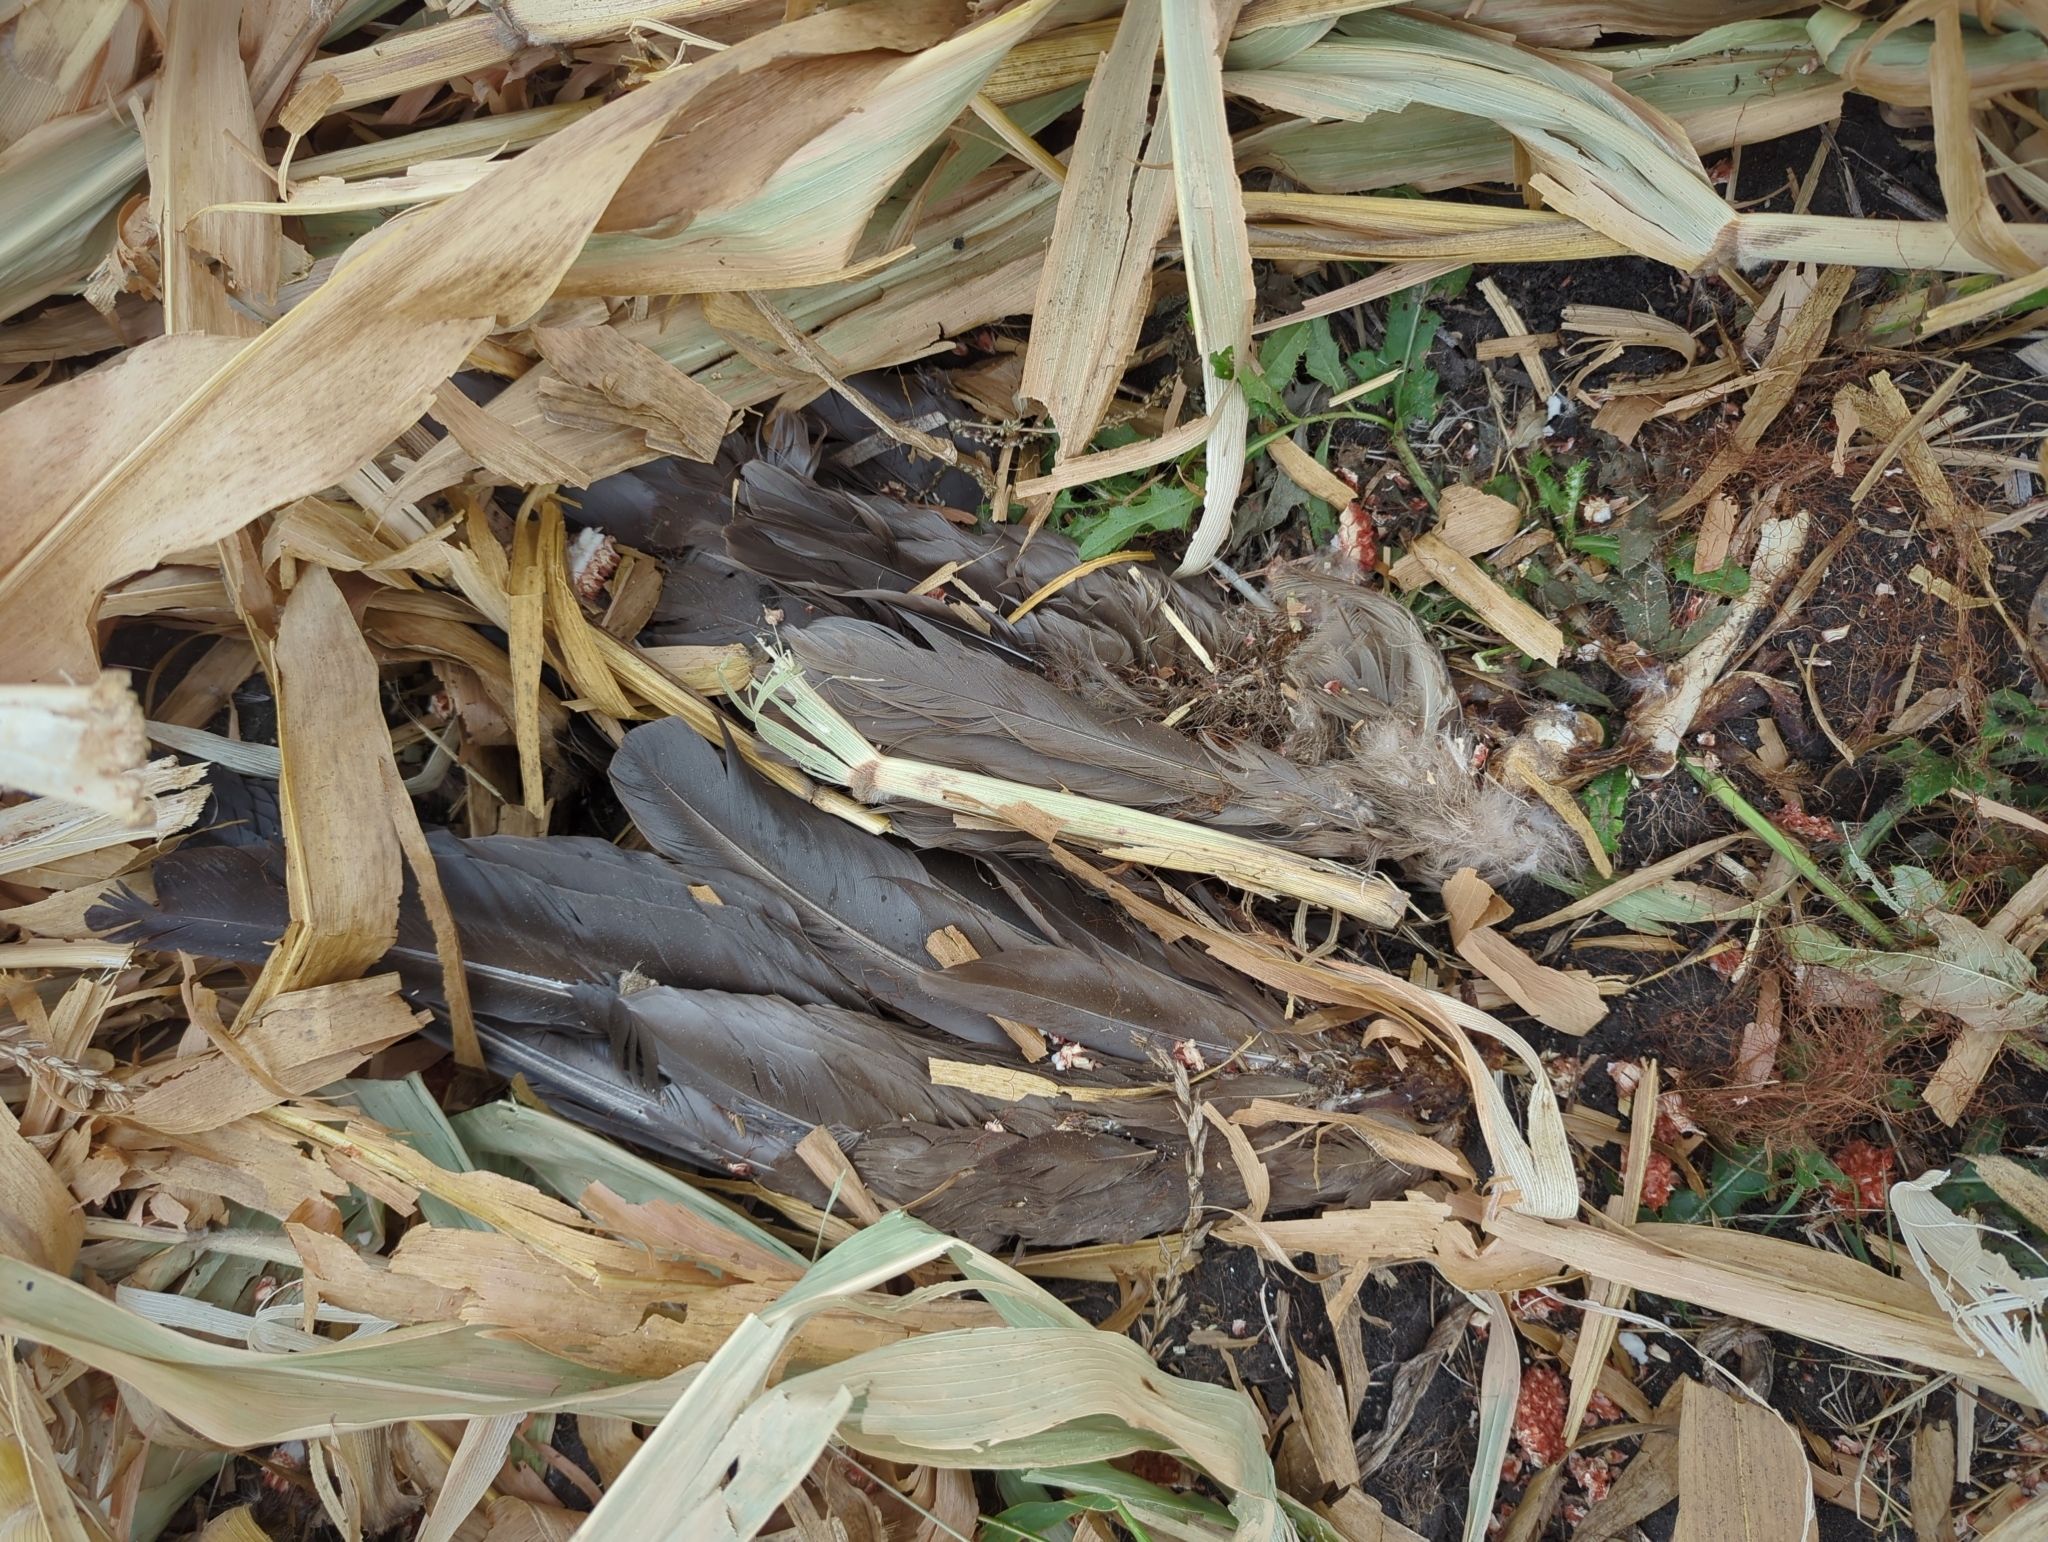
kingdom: Animalia
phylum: Chordata
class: Aves
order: Anseriformes
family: Anatidae
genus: Branta
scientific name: Branta canadensis
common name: Canada goose
